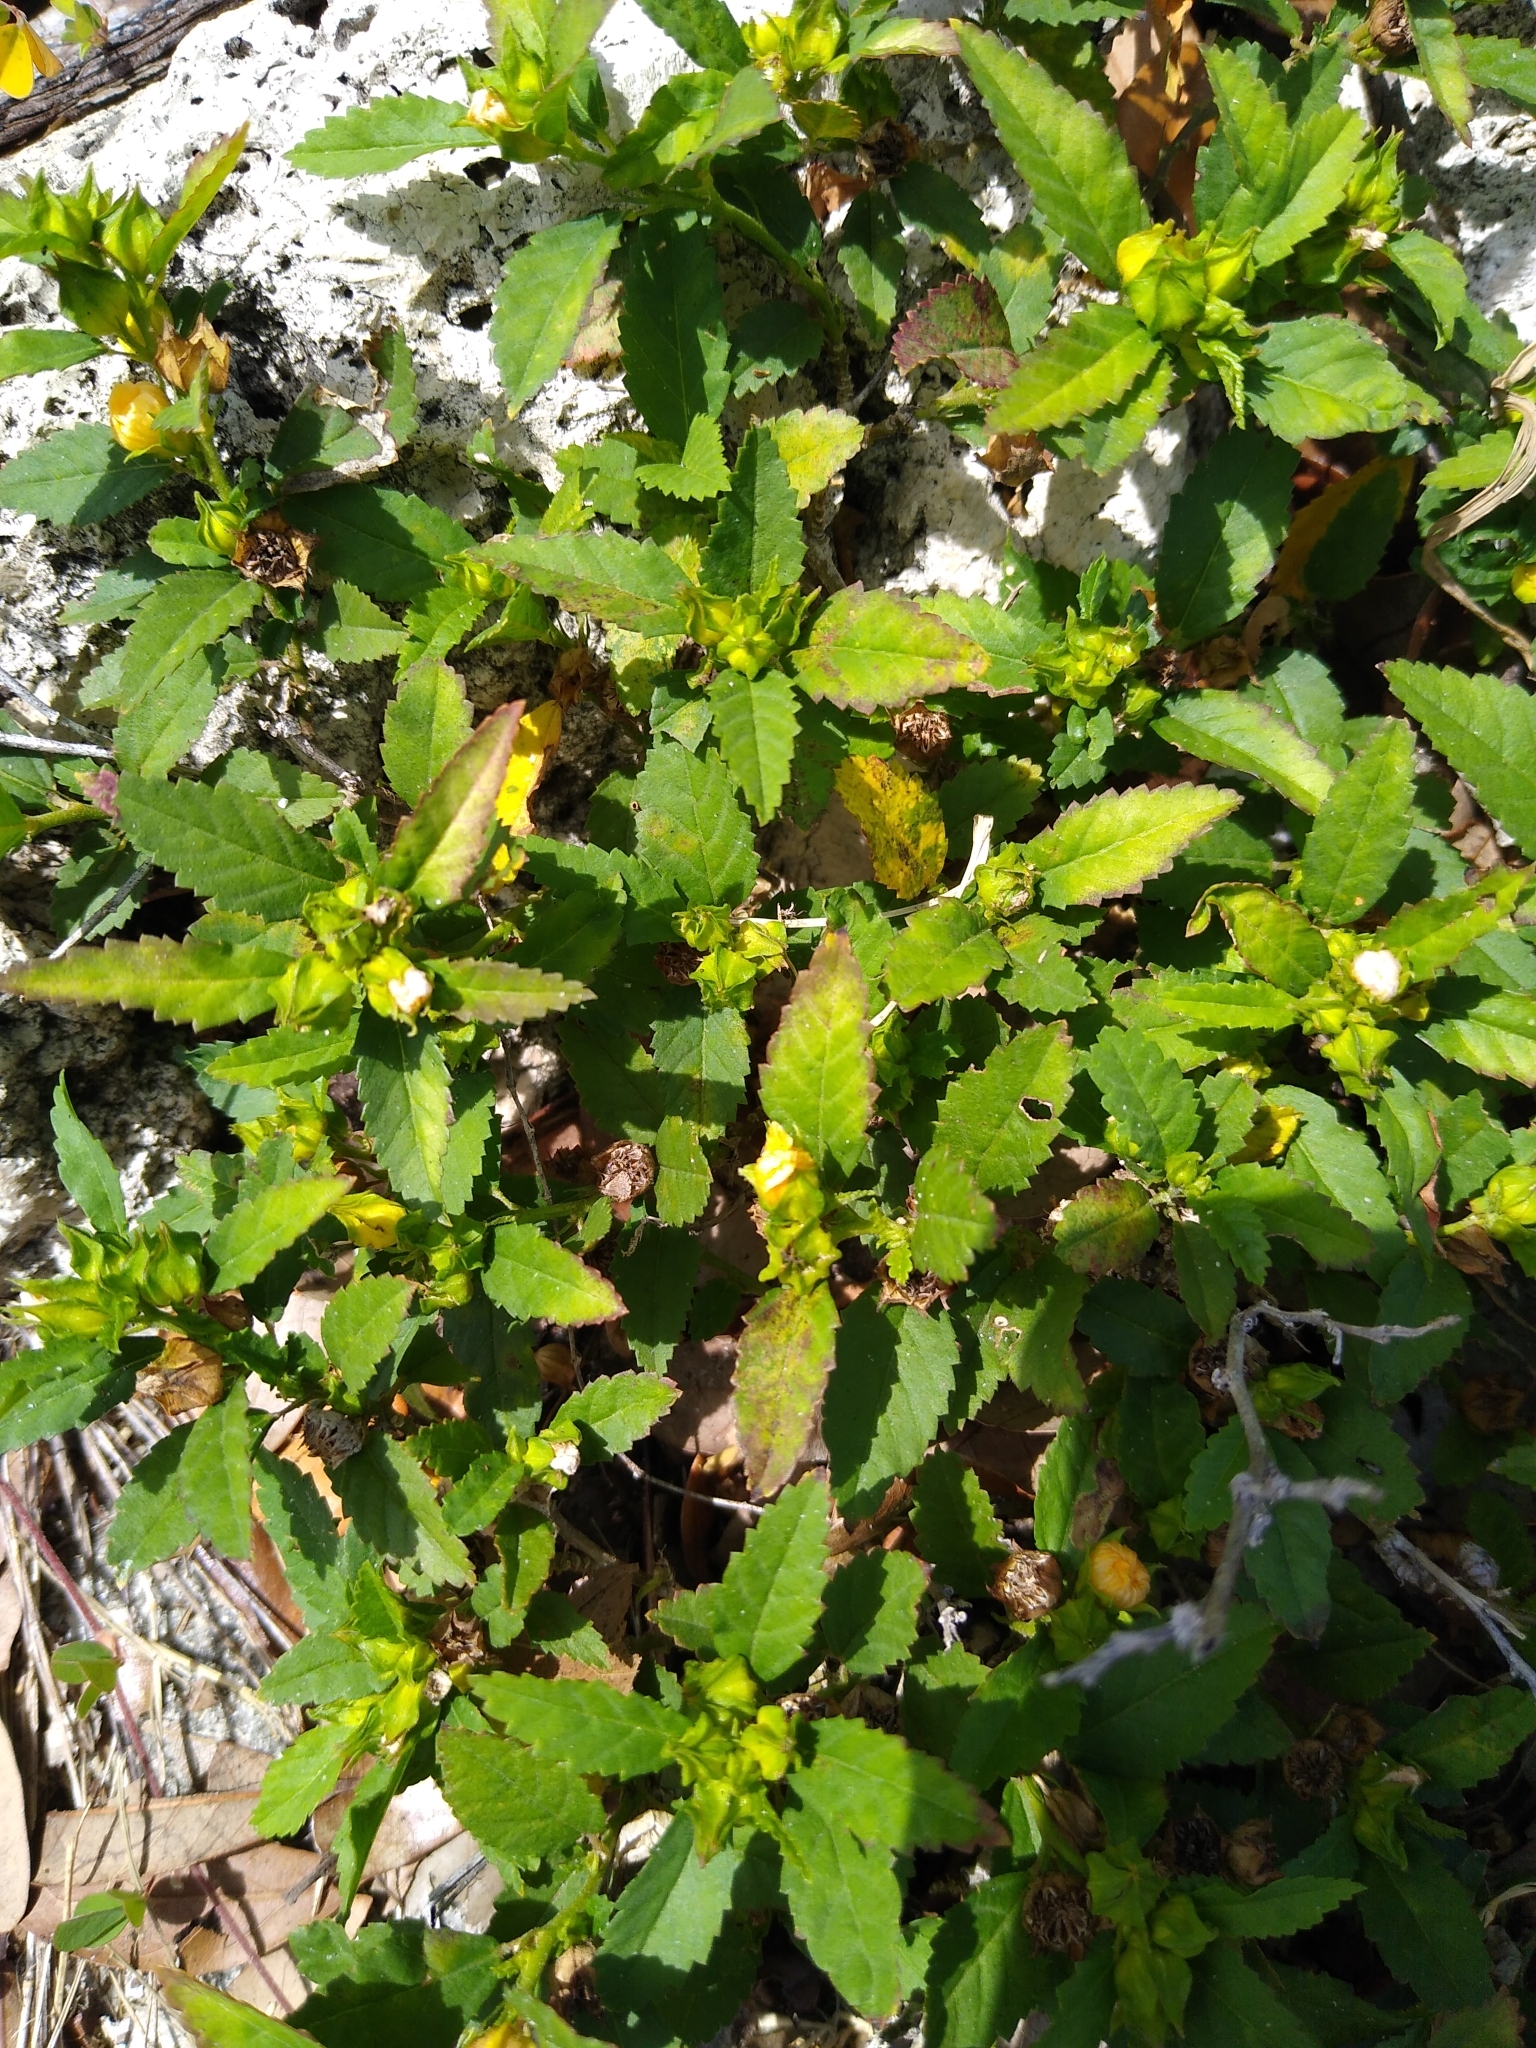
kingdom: Plantae
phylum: Tracheophyta
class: Magnoliopsida
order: Malvales
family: Malvaceae
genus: Sida
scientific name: Sida rhombifolia
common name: Queensland-hemp
